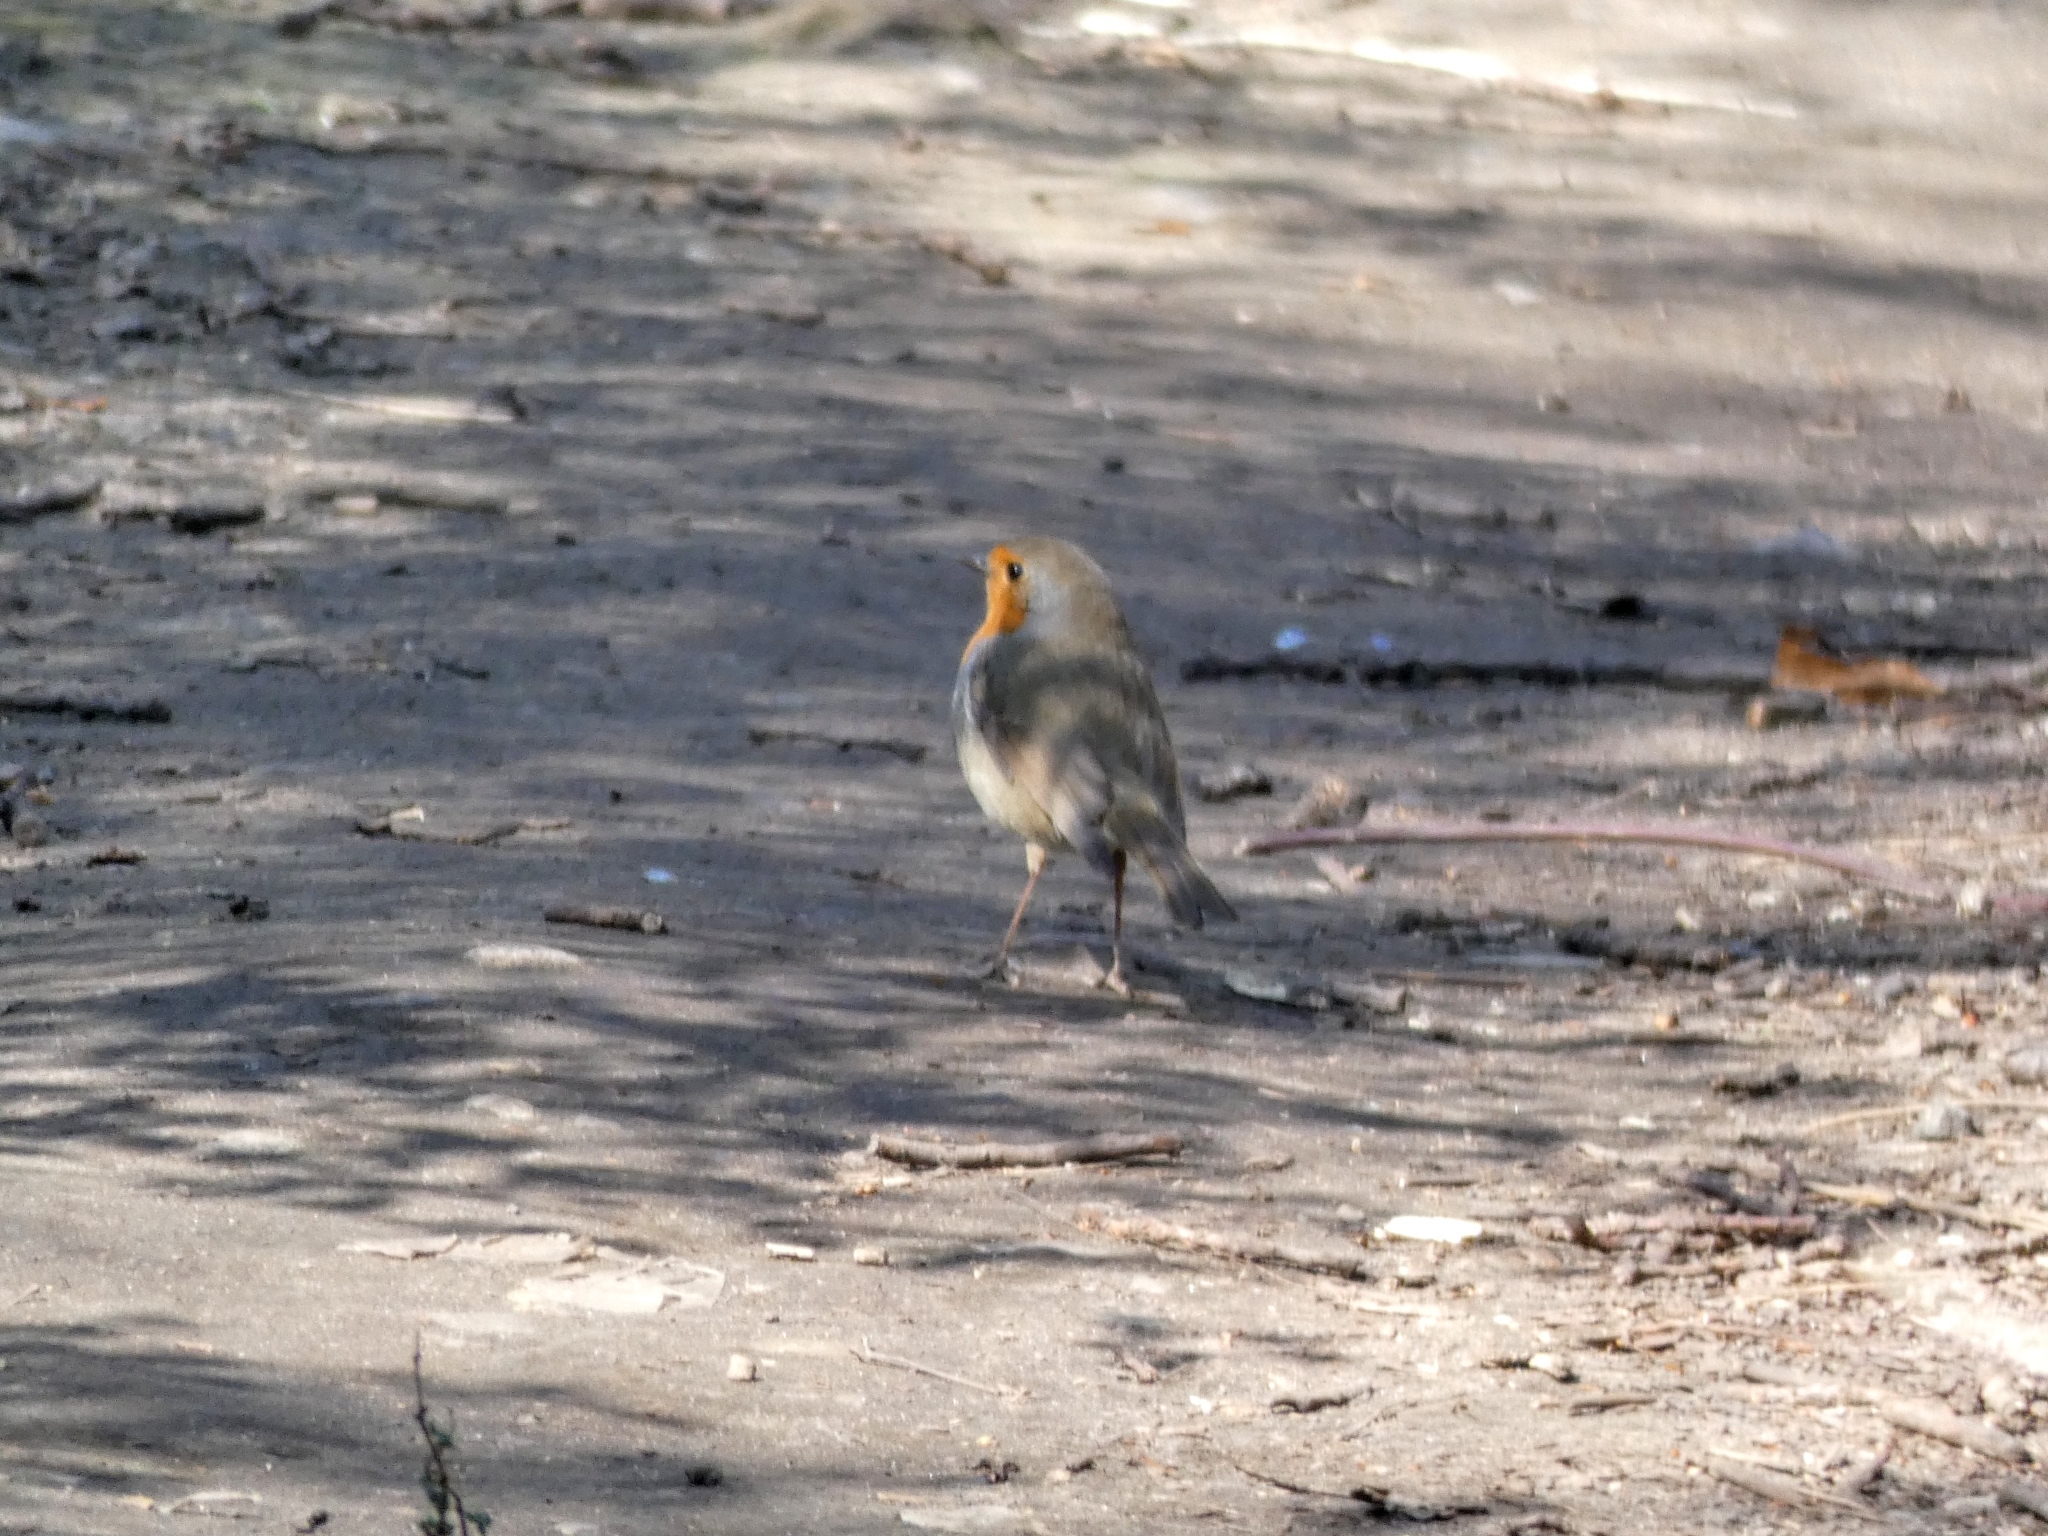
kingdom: Animalia
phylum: Chordata
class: Aves
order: Passeriformes
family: Muscicapidae
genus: Erithacus
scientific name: Erithacus rubecula
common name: European robin
